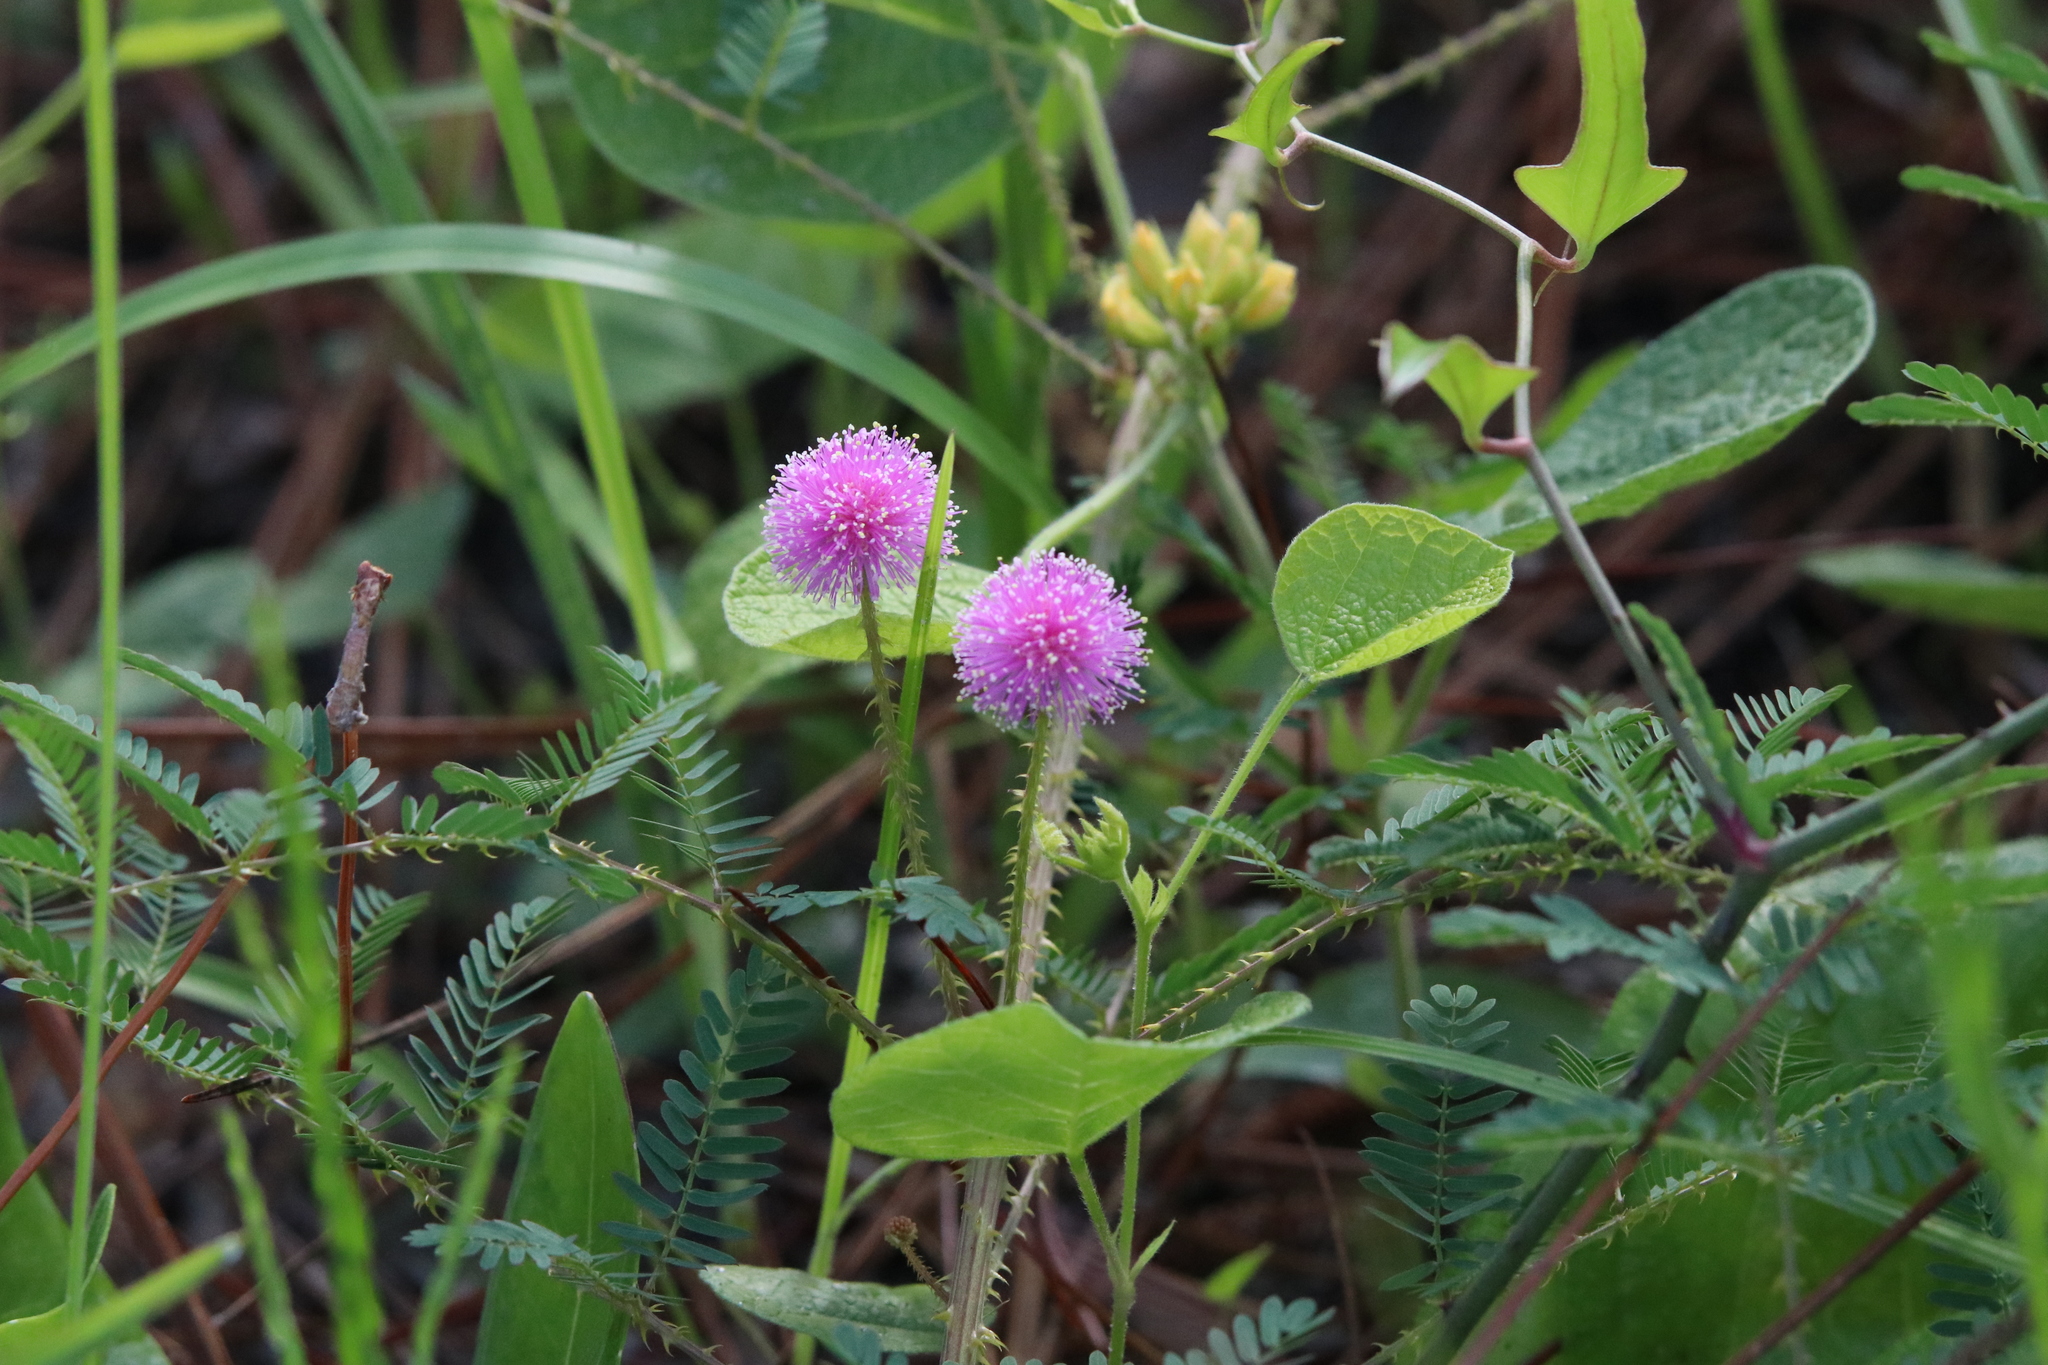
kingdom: Plantae
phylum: Tracheophyta
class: Magnoliopsida
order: Fabales
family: Fabaceae
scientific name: Fabaceae
